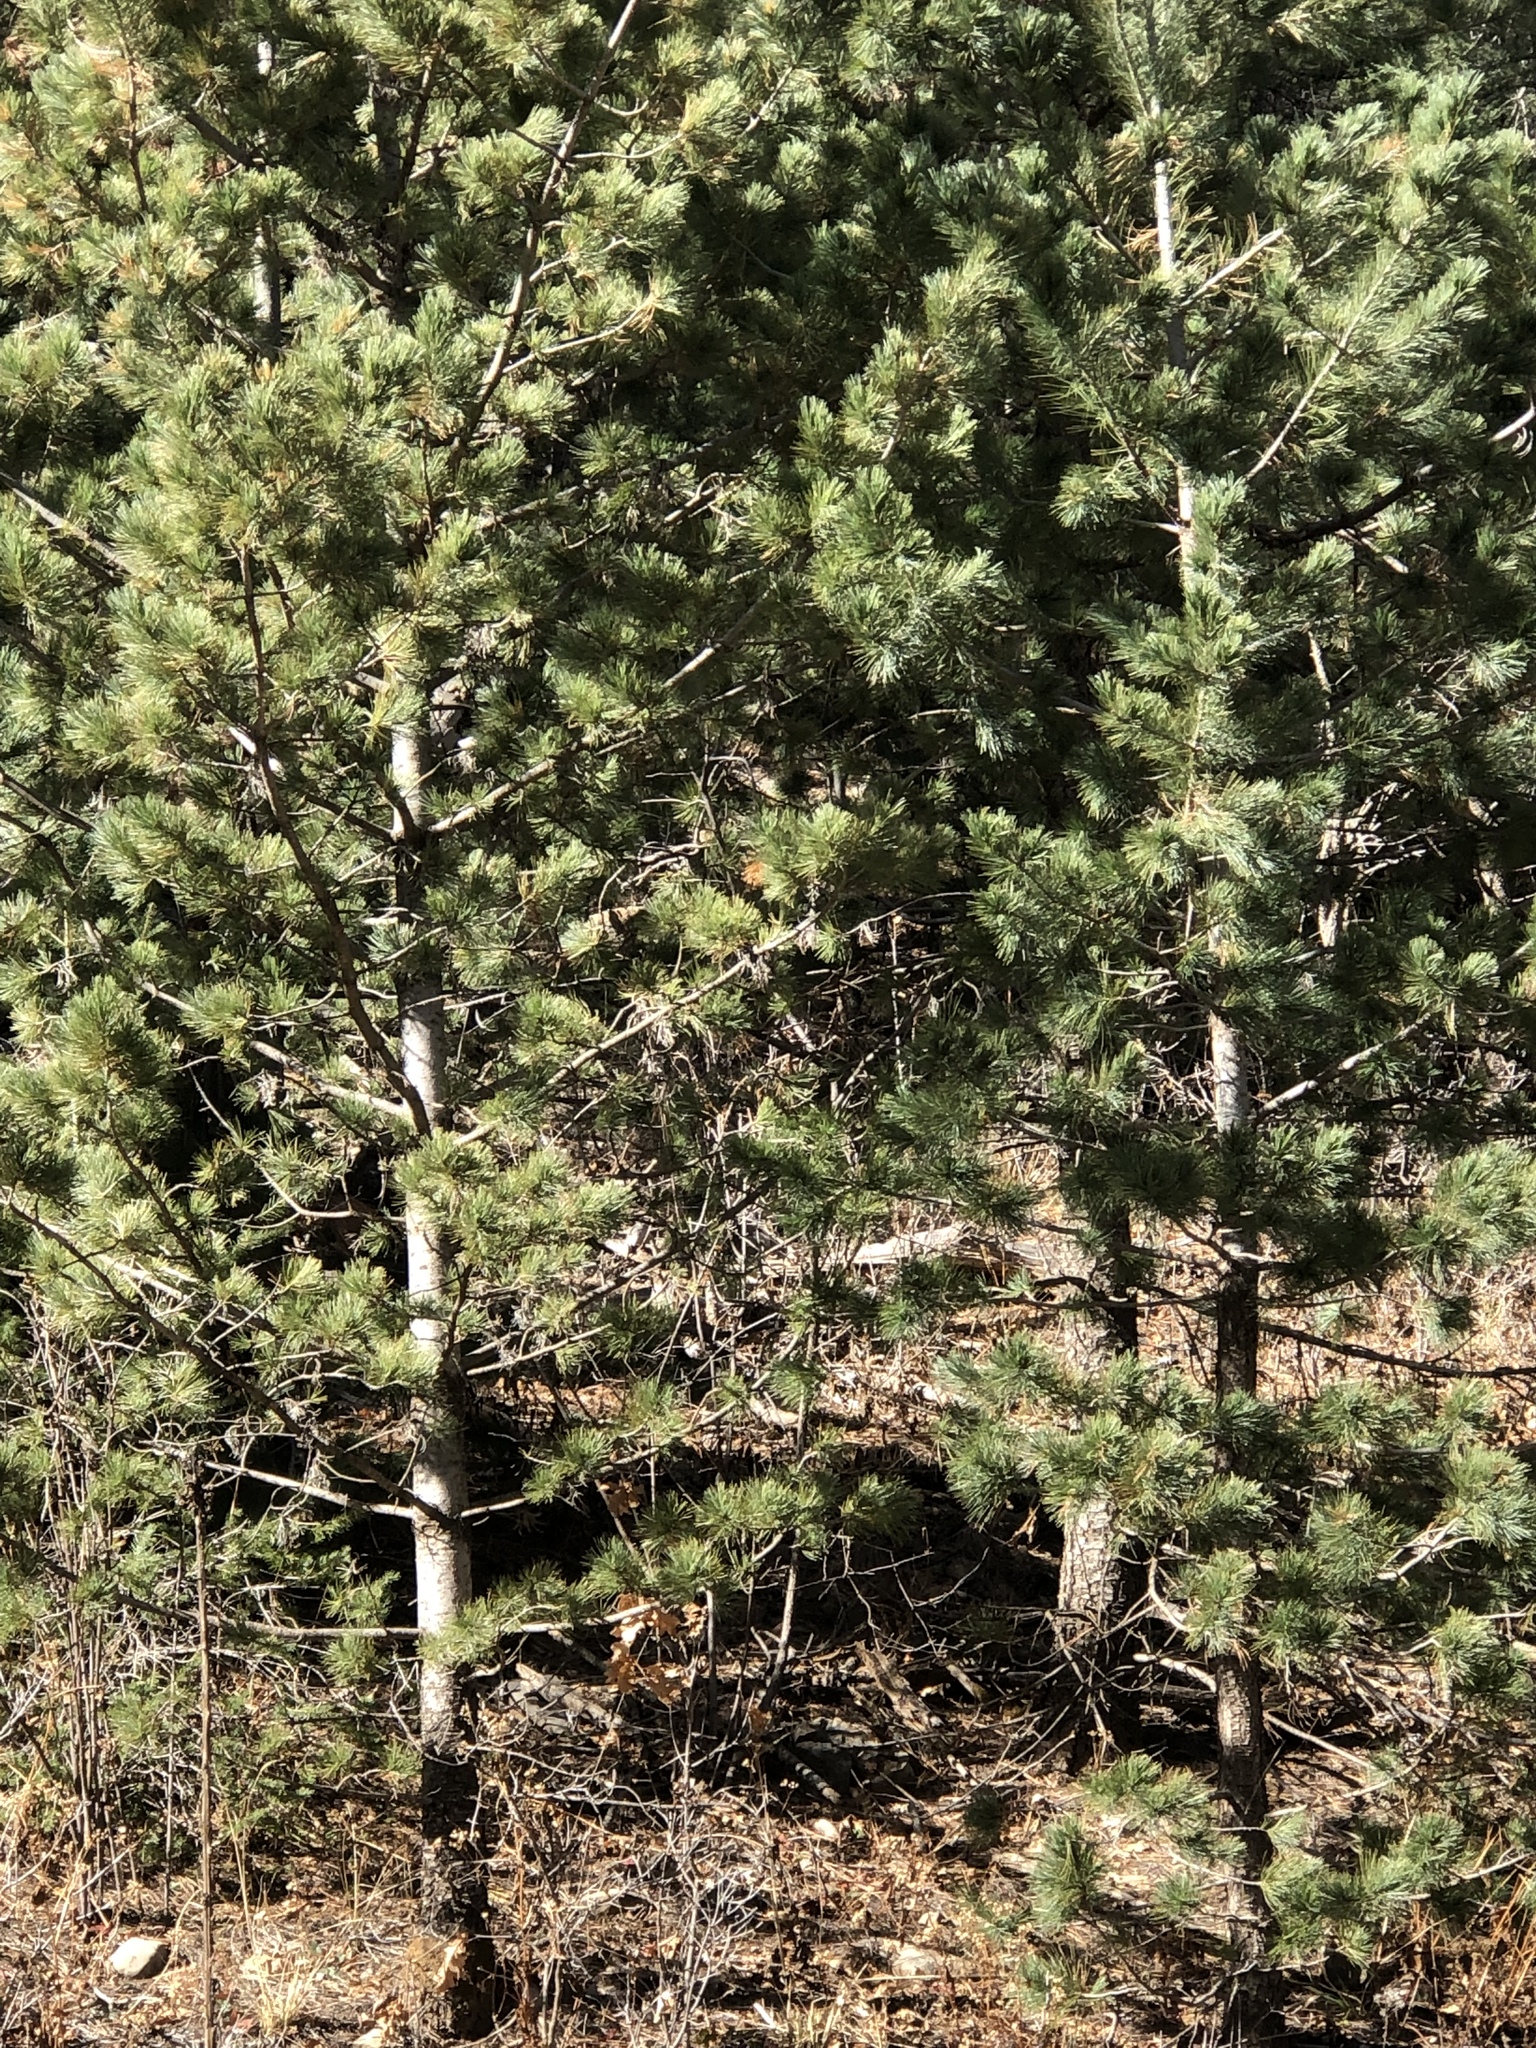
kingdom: Plantae
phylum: Tracheophyta
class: Pinopsida
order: Pinales
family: Pinaceae
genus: Pinus
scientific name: Pinus strobiformis
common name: Southwestern white pine
